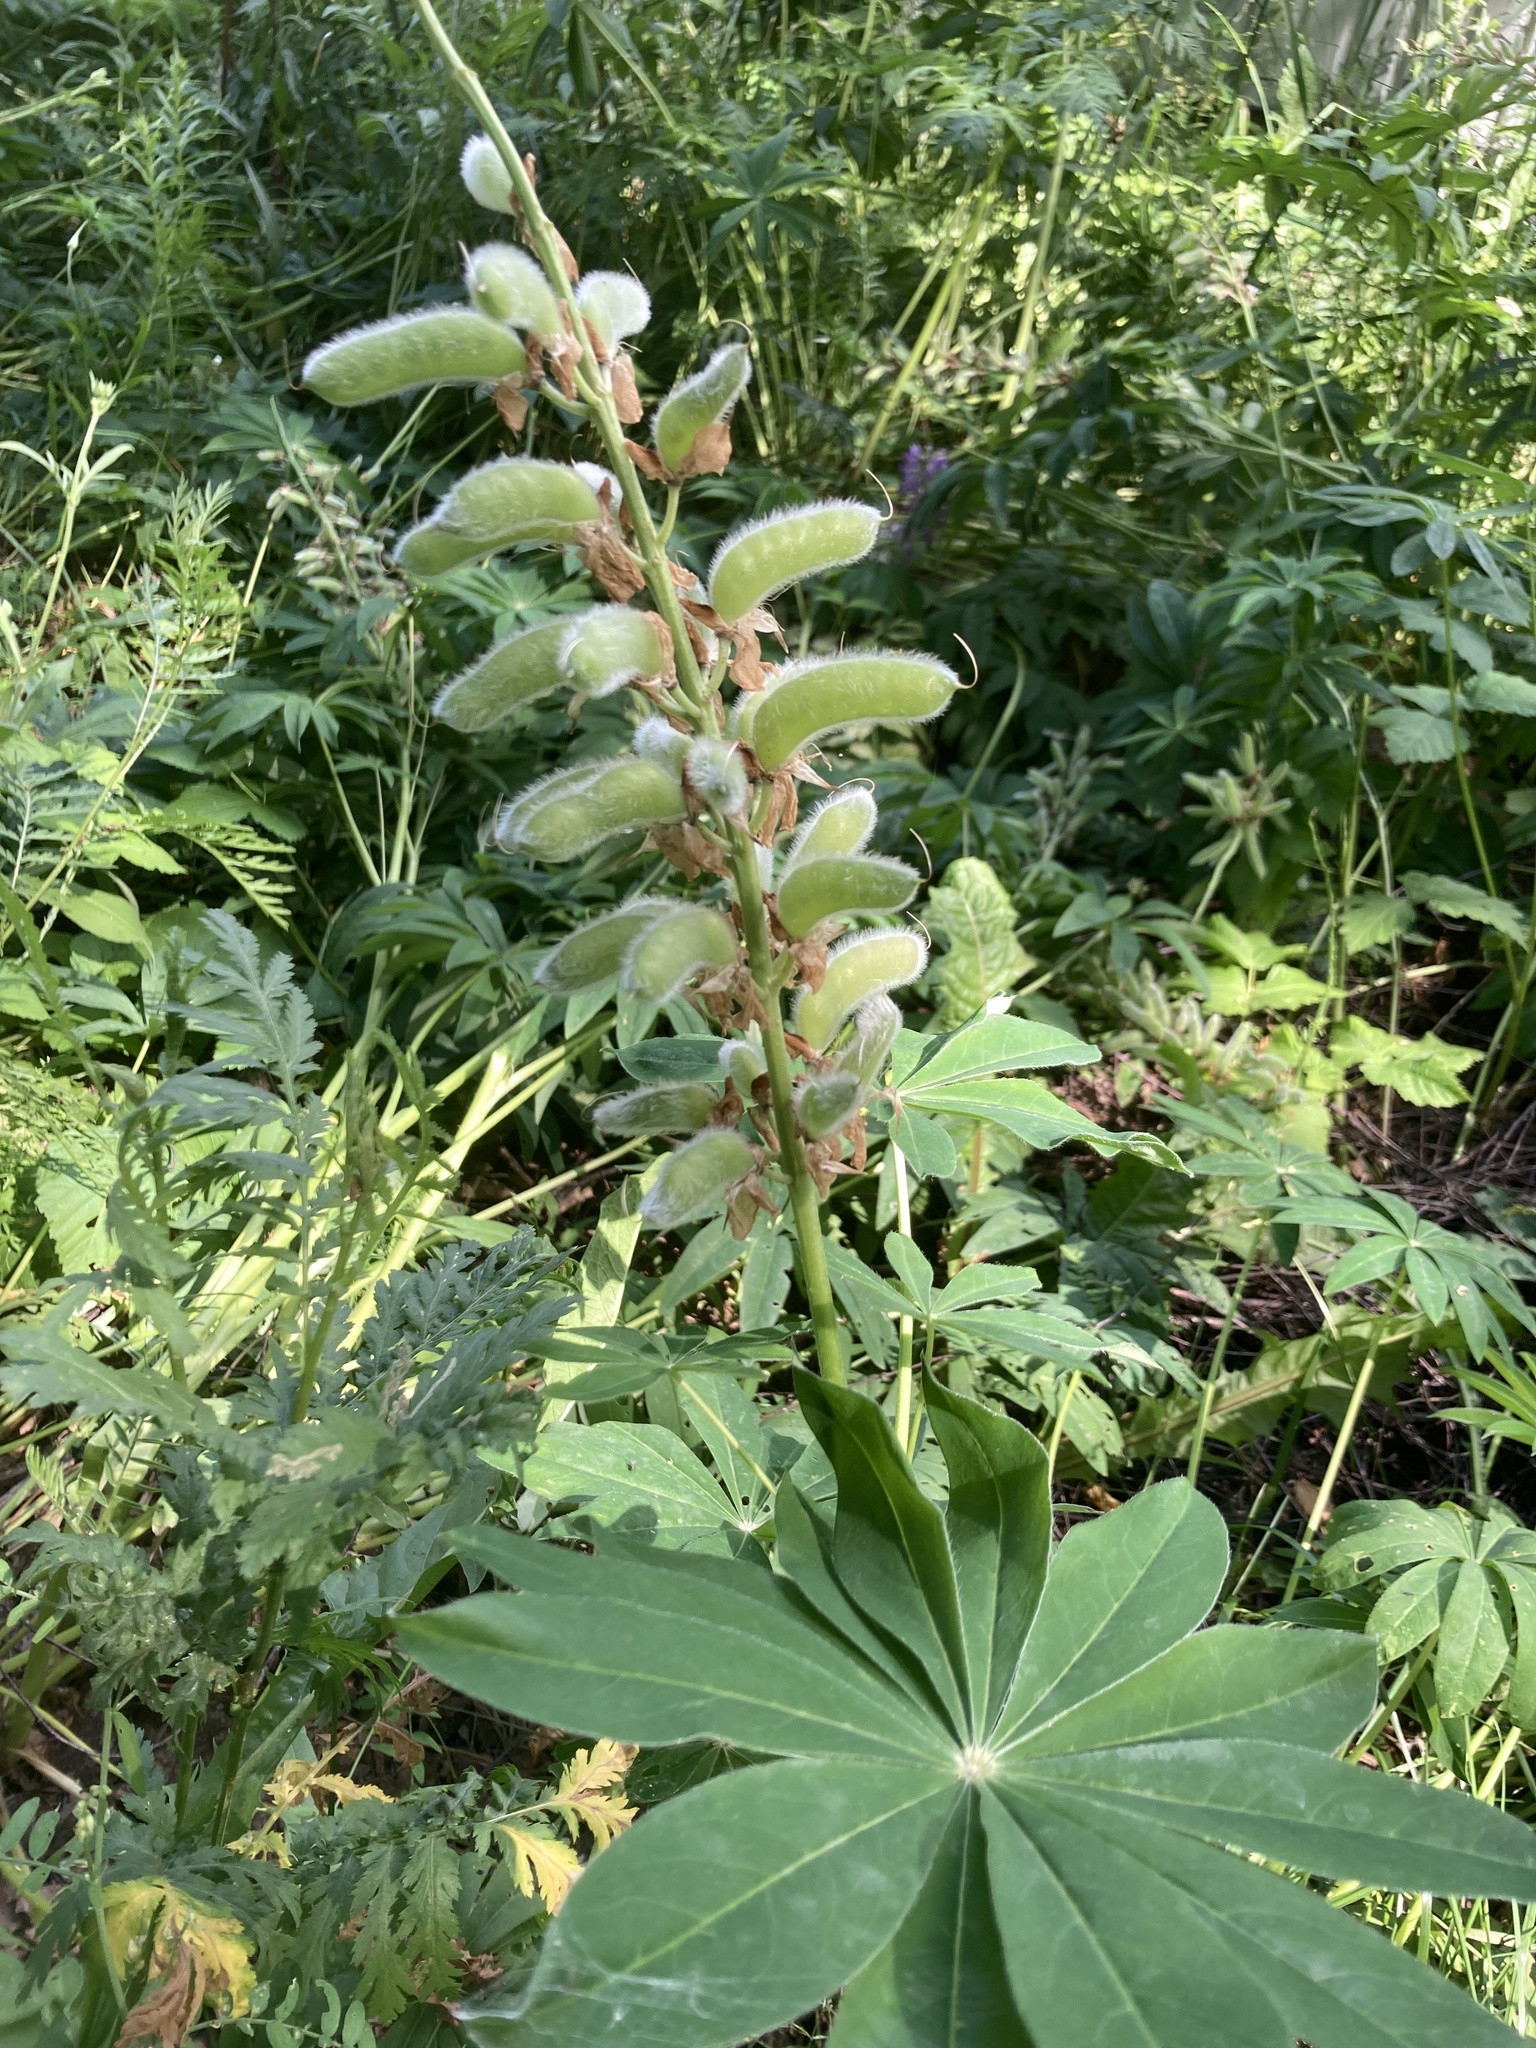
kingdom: Plantae
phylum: Tracheophyta
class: Magnoliopsida
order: Fabales
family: Fabaceae
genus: Lupinus
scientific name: Lupinus polyphyllus
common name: Garden lupin
